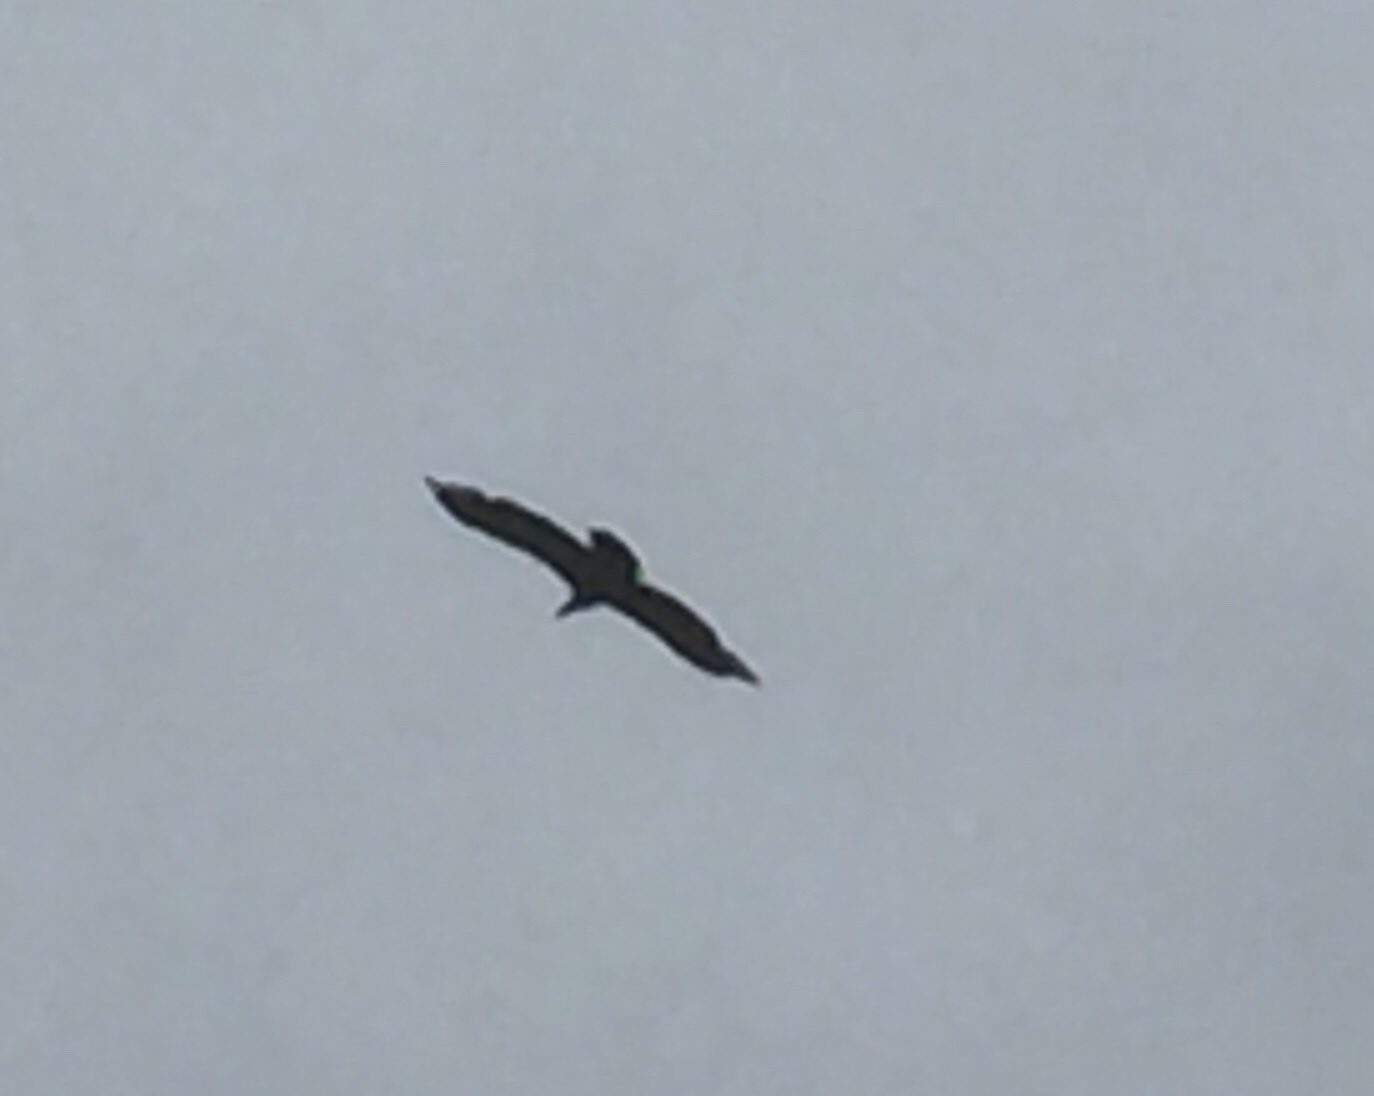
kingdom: Animalia
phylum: Chordata
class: Aves
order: Accipitriformes
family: Accipitridae
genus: Gyps
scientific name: Gyps fulvus
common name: Griffon vulture
